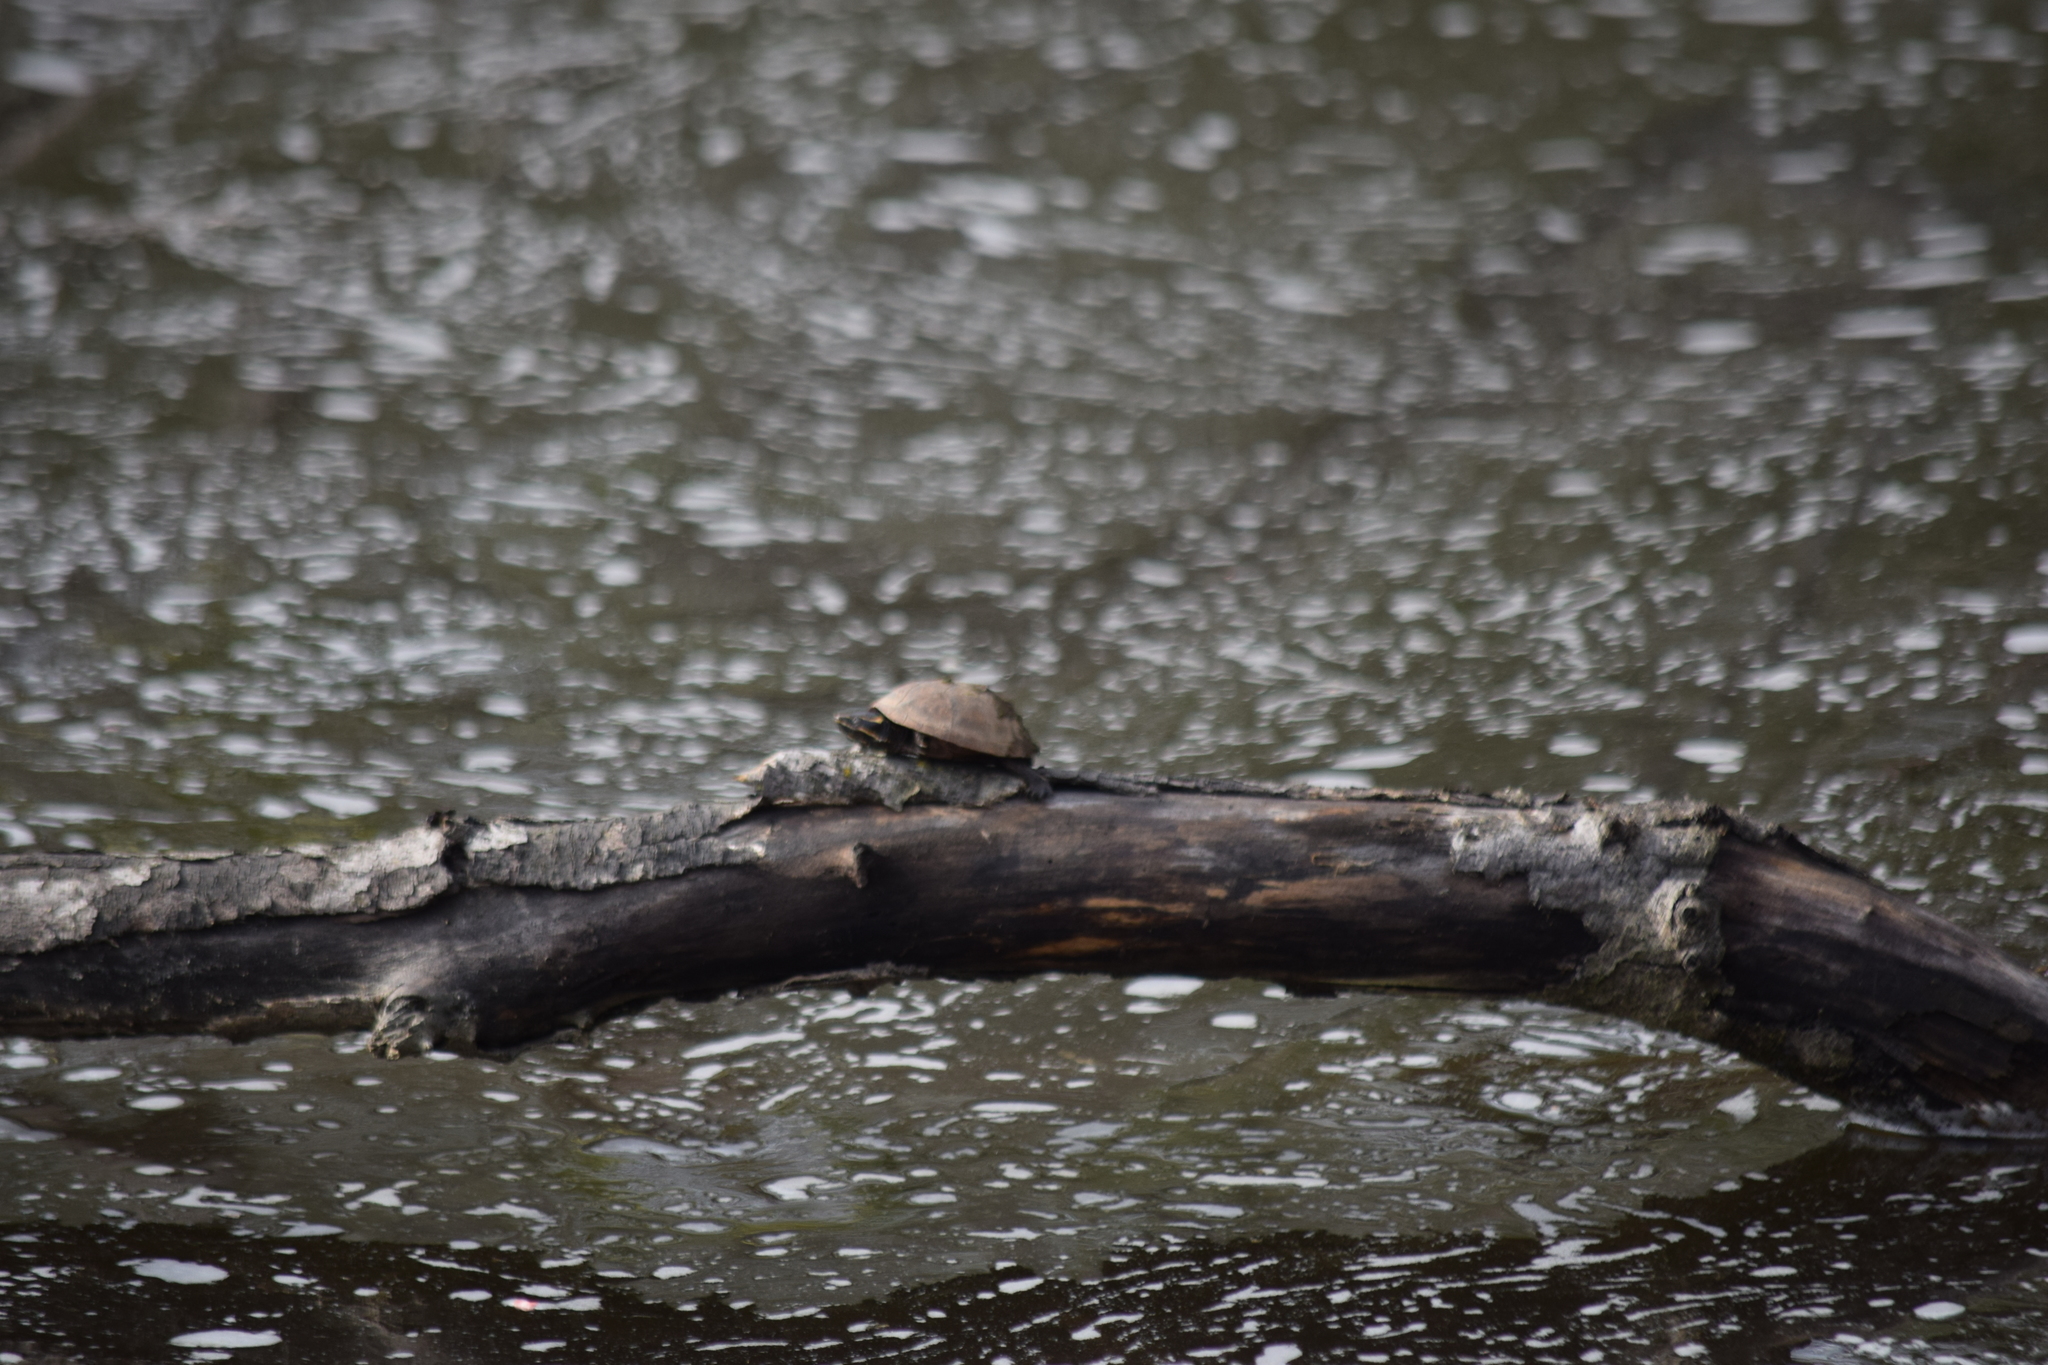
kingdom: Animalia
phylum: Chordata
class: Testudines
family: Kinosternidae
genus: Sternotherus
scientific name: Sternotherus odoratus
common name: Common musk turtle
